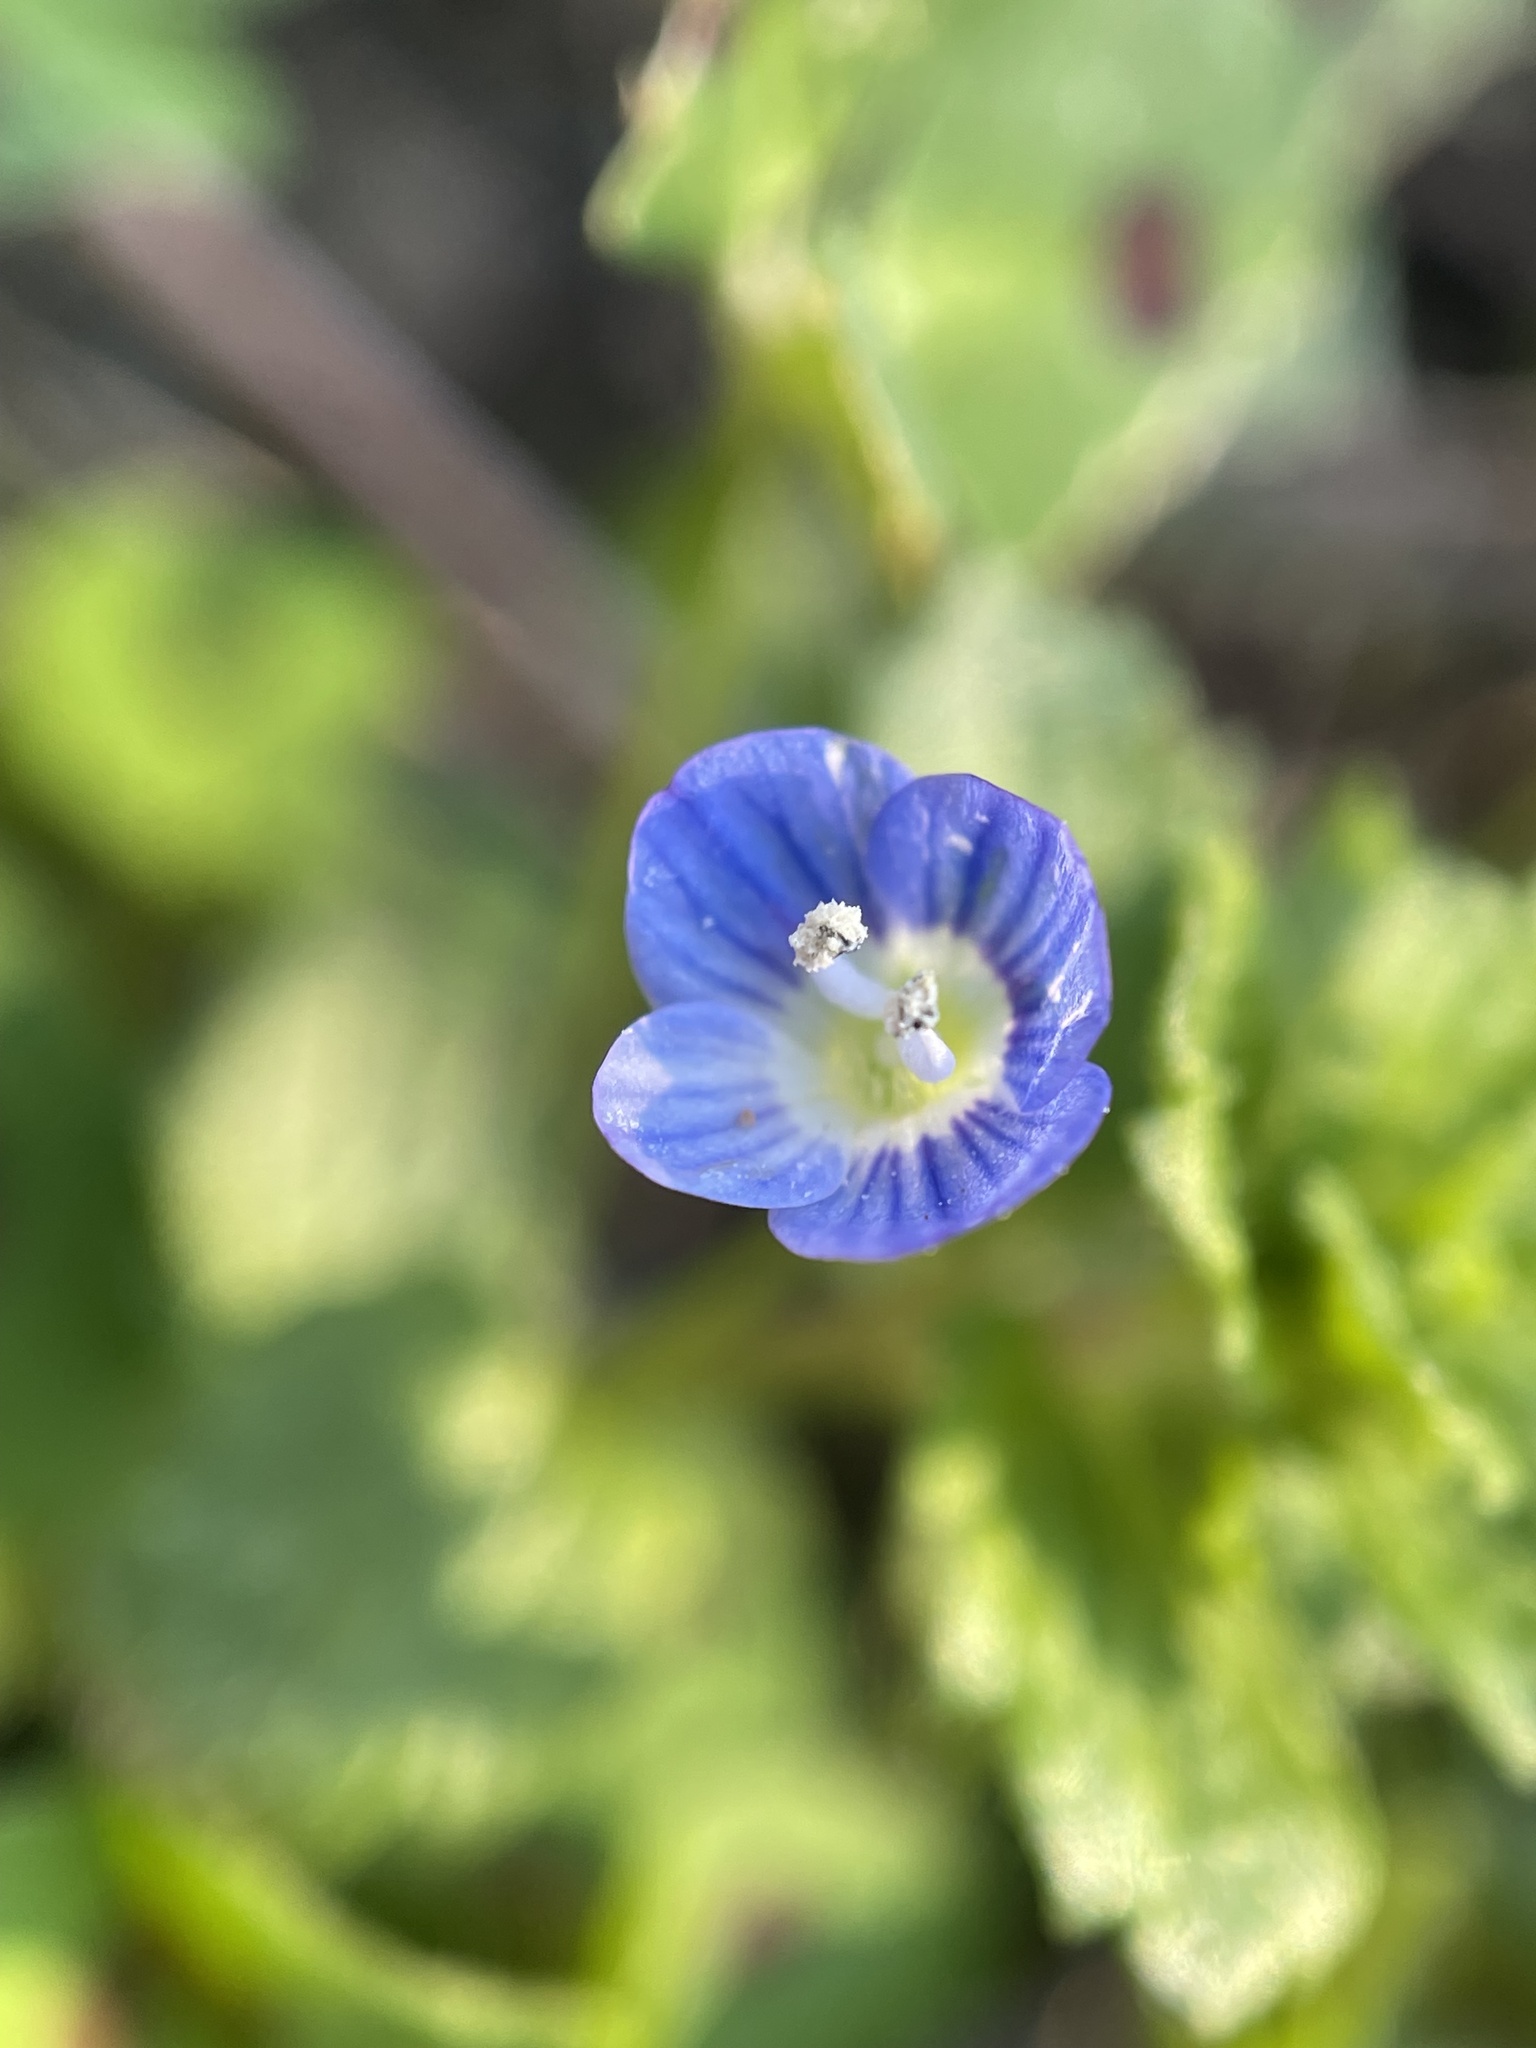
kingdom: Plantae
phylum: Tracheophyta
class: Magnoliopsida
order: Lamiales
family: Plantaginaceae
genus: Veronica
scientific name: Veronica persica
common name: Common field-speedwell
